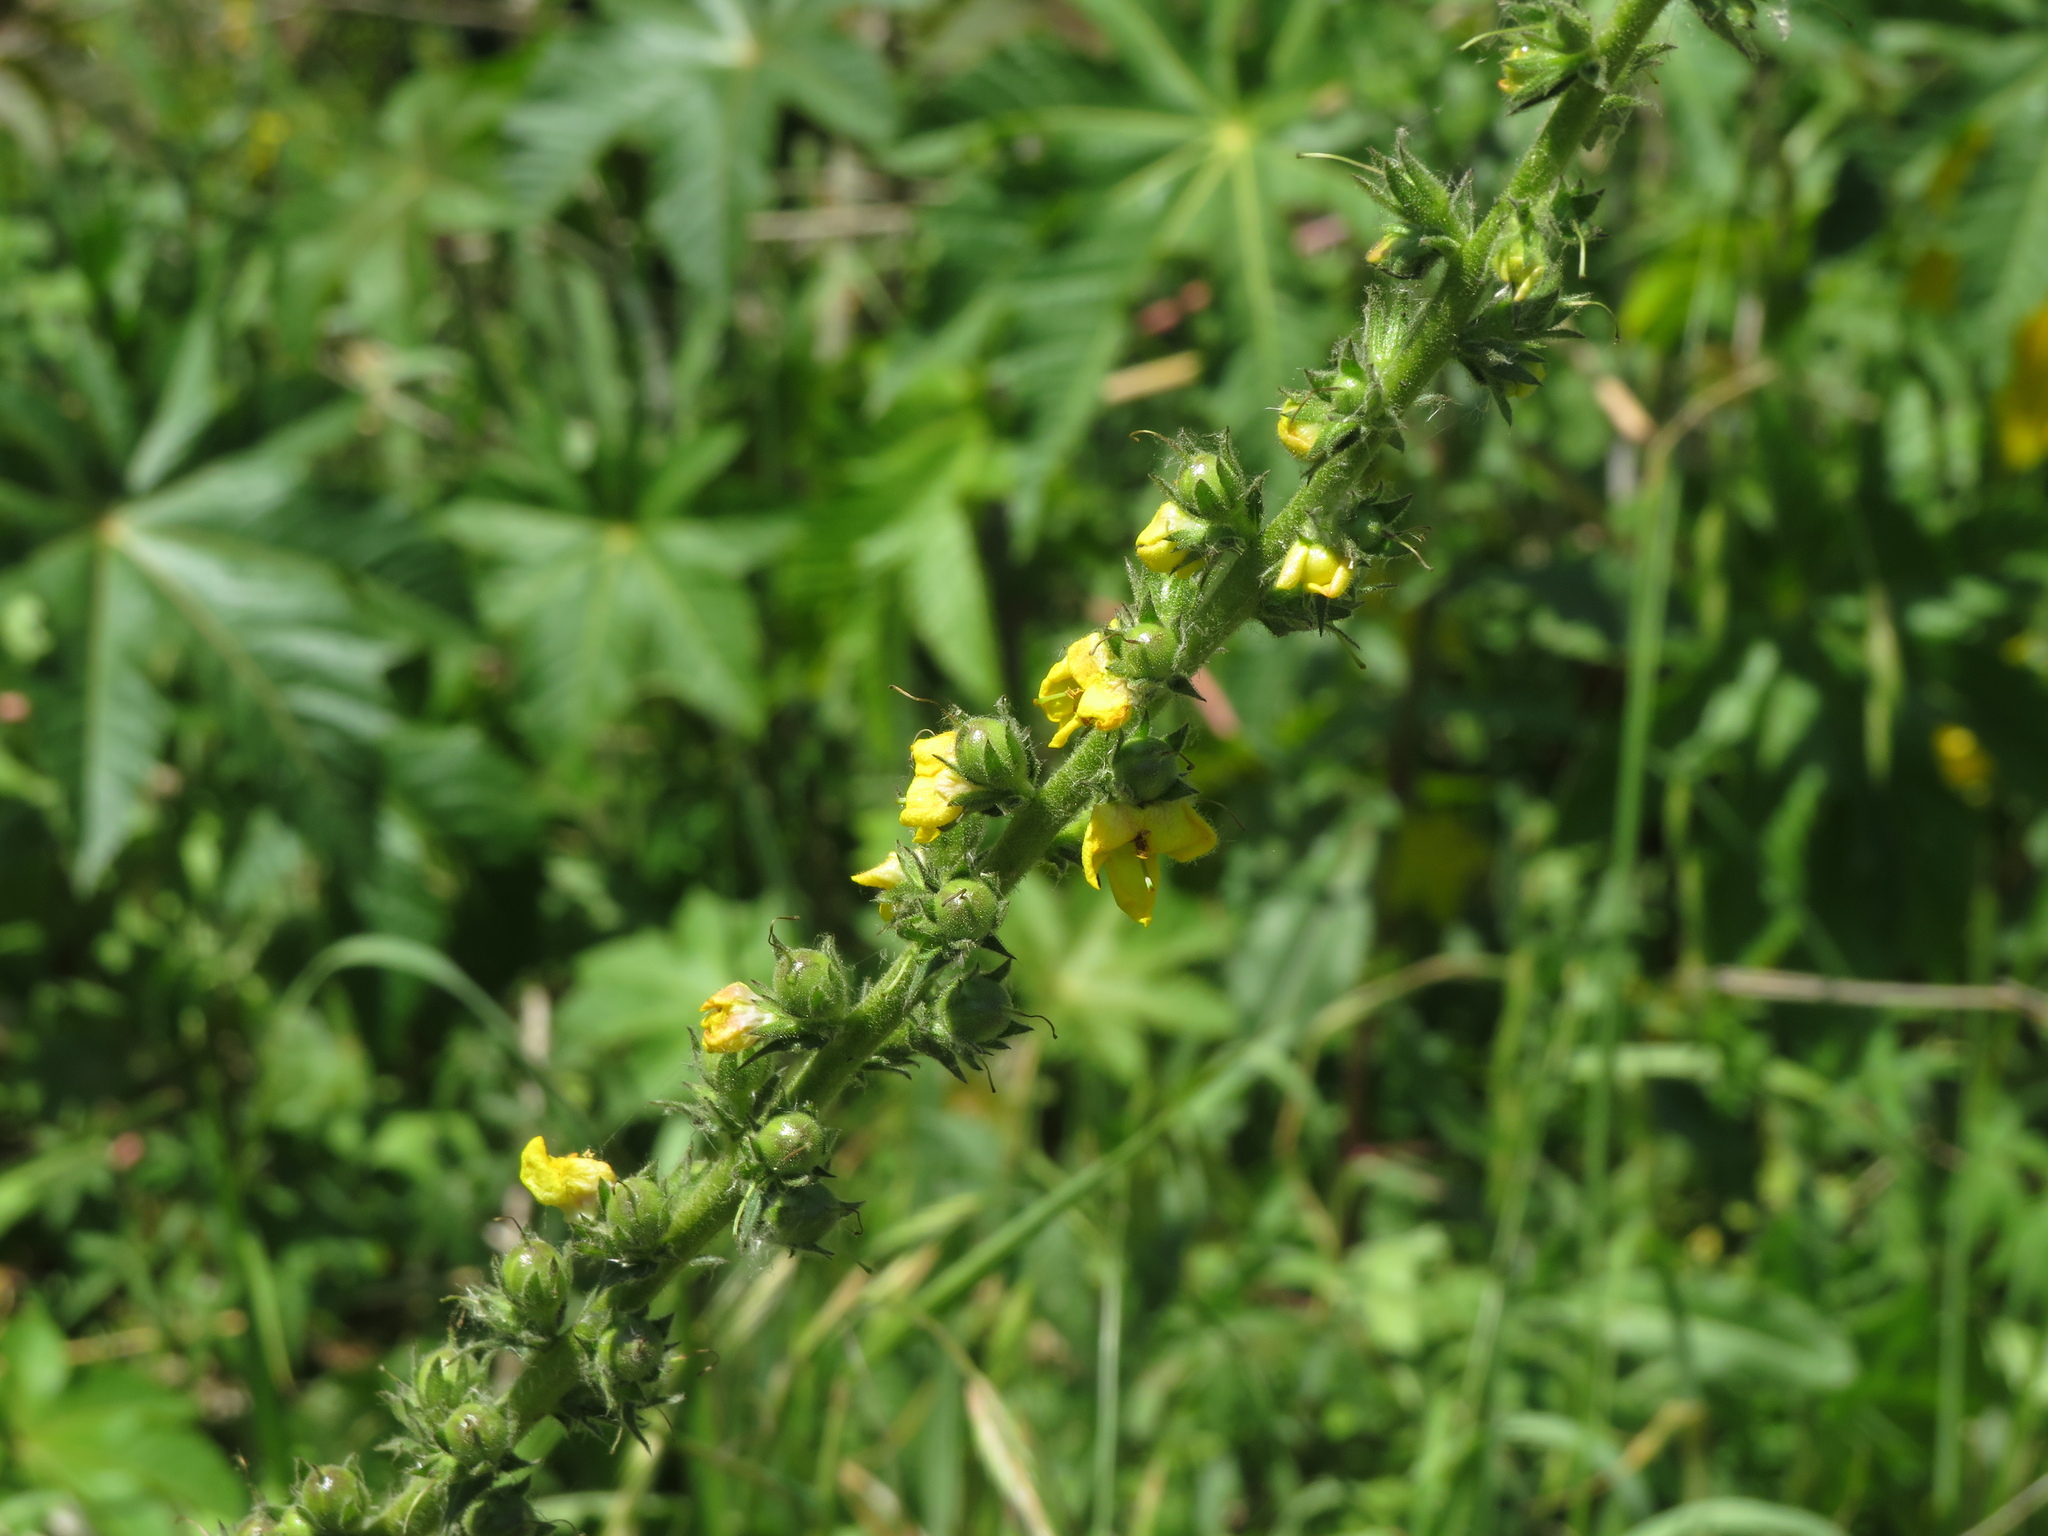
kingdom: Plantae
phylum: Tracheophyta
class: Magnoliopsida
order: Lamiales
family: Scrophulariaceae
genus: Verbascum
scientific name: Verbascum virgatum
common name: Twiggy mullein
